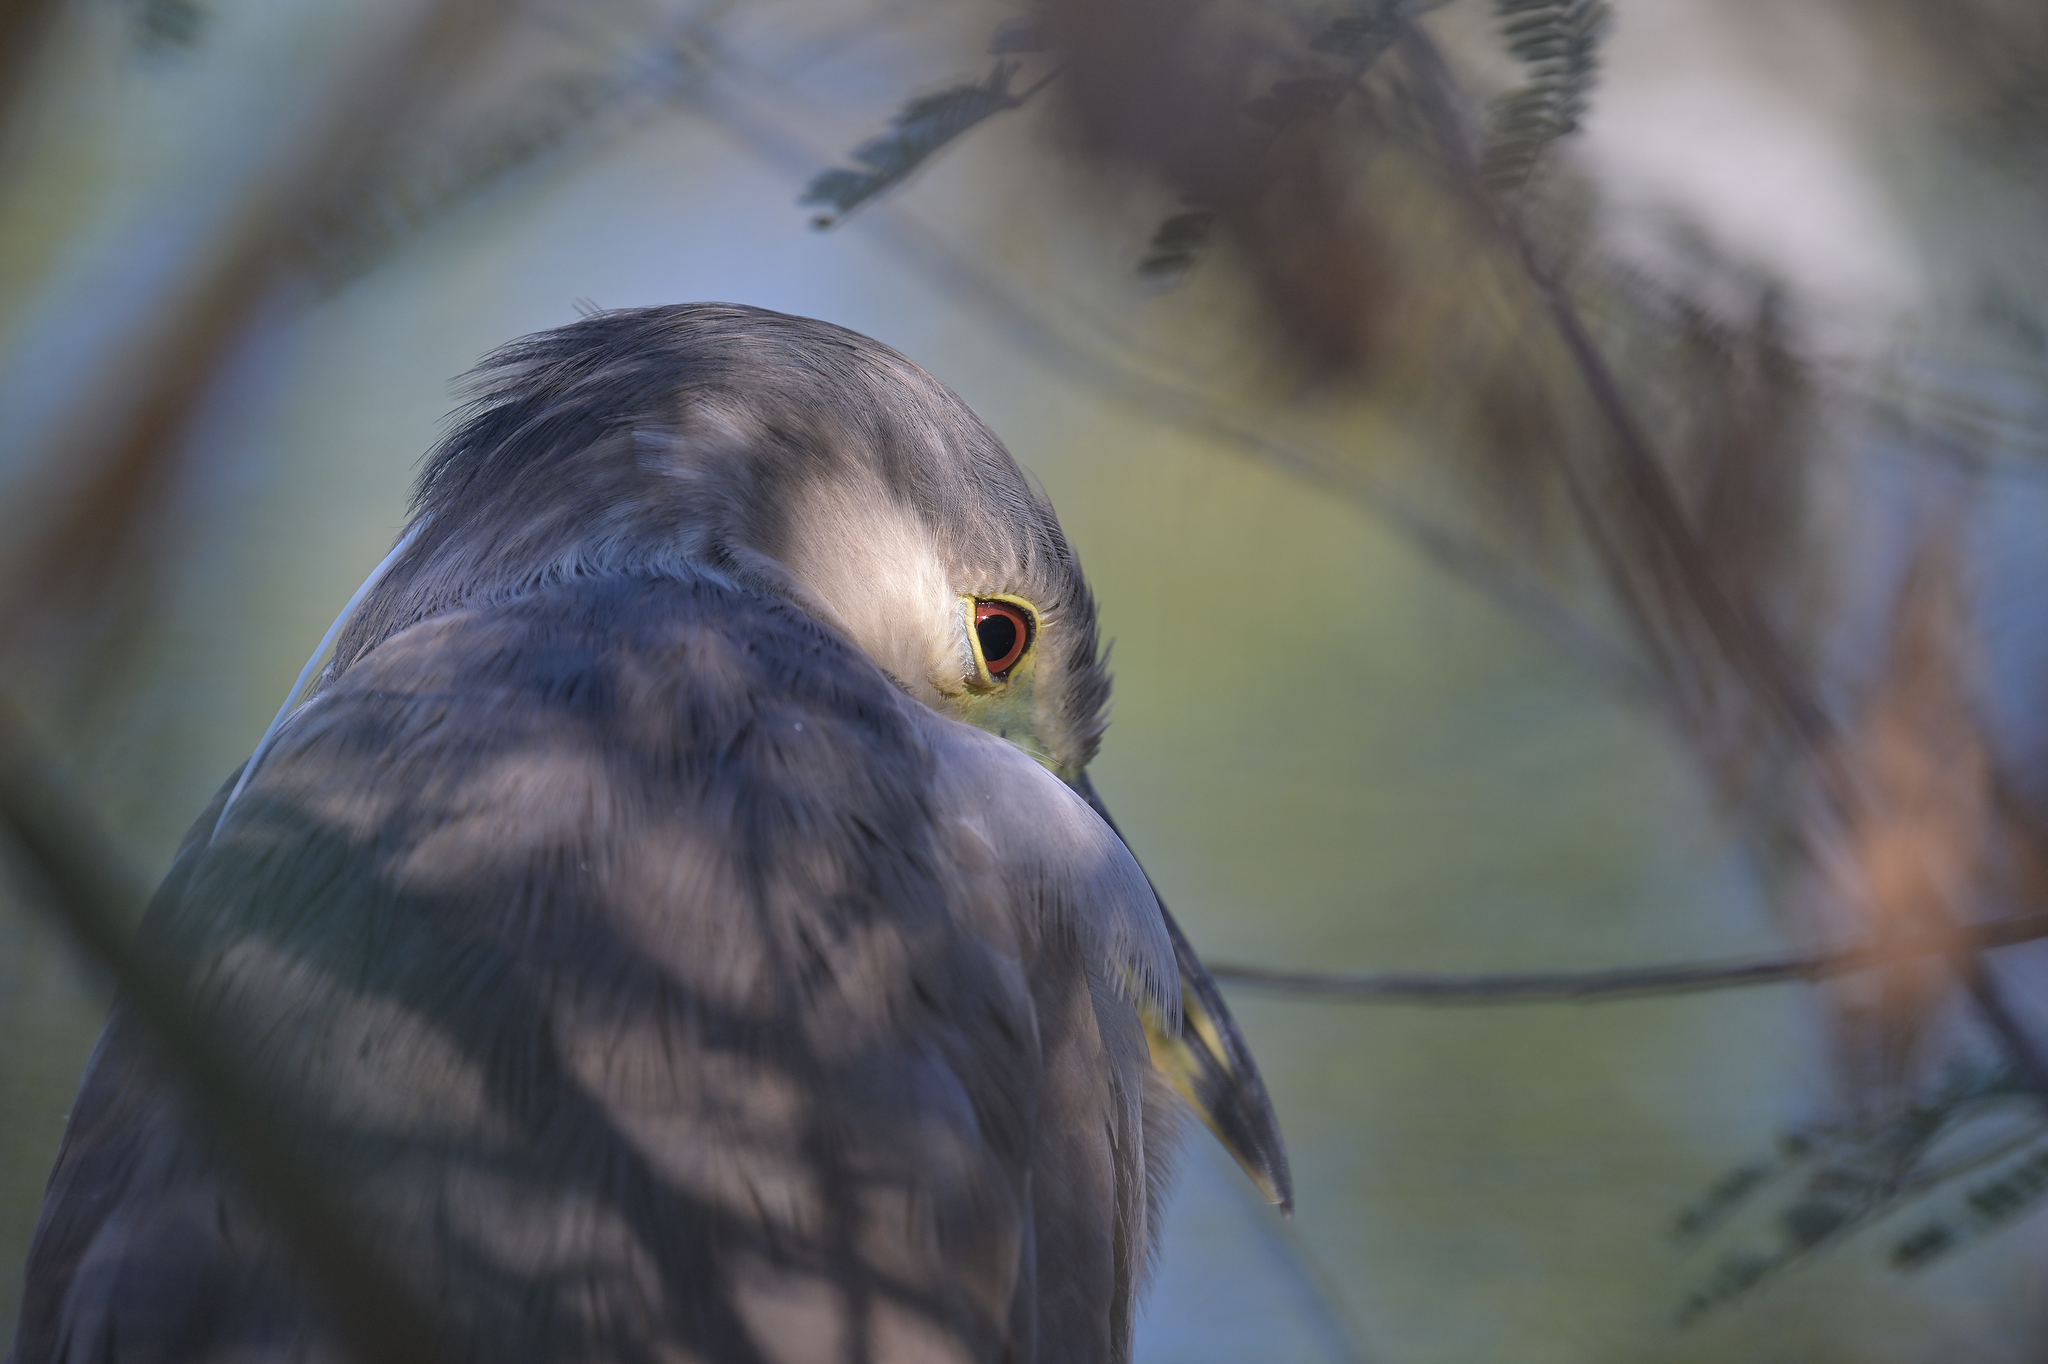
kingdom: Animalia
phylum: Chordata
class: Aves
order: Pelecaniformes
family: Ardeidae
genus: Nycticorax
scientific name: Nycticorax nycticorax
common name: Black-crowned night heron
